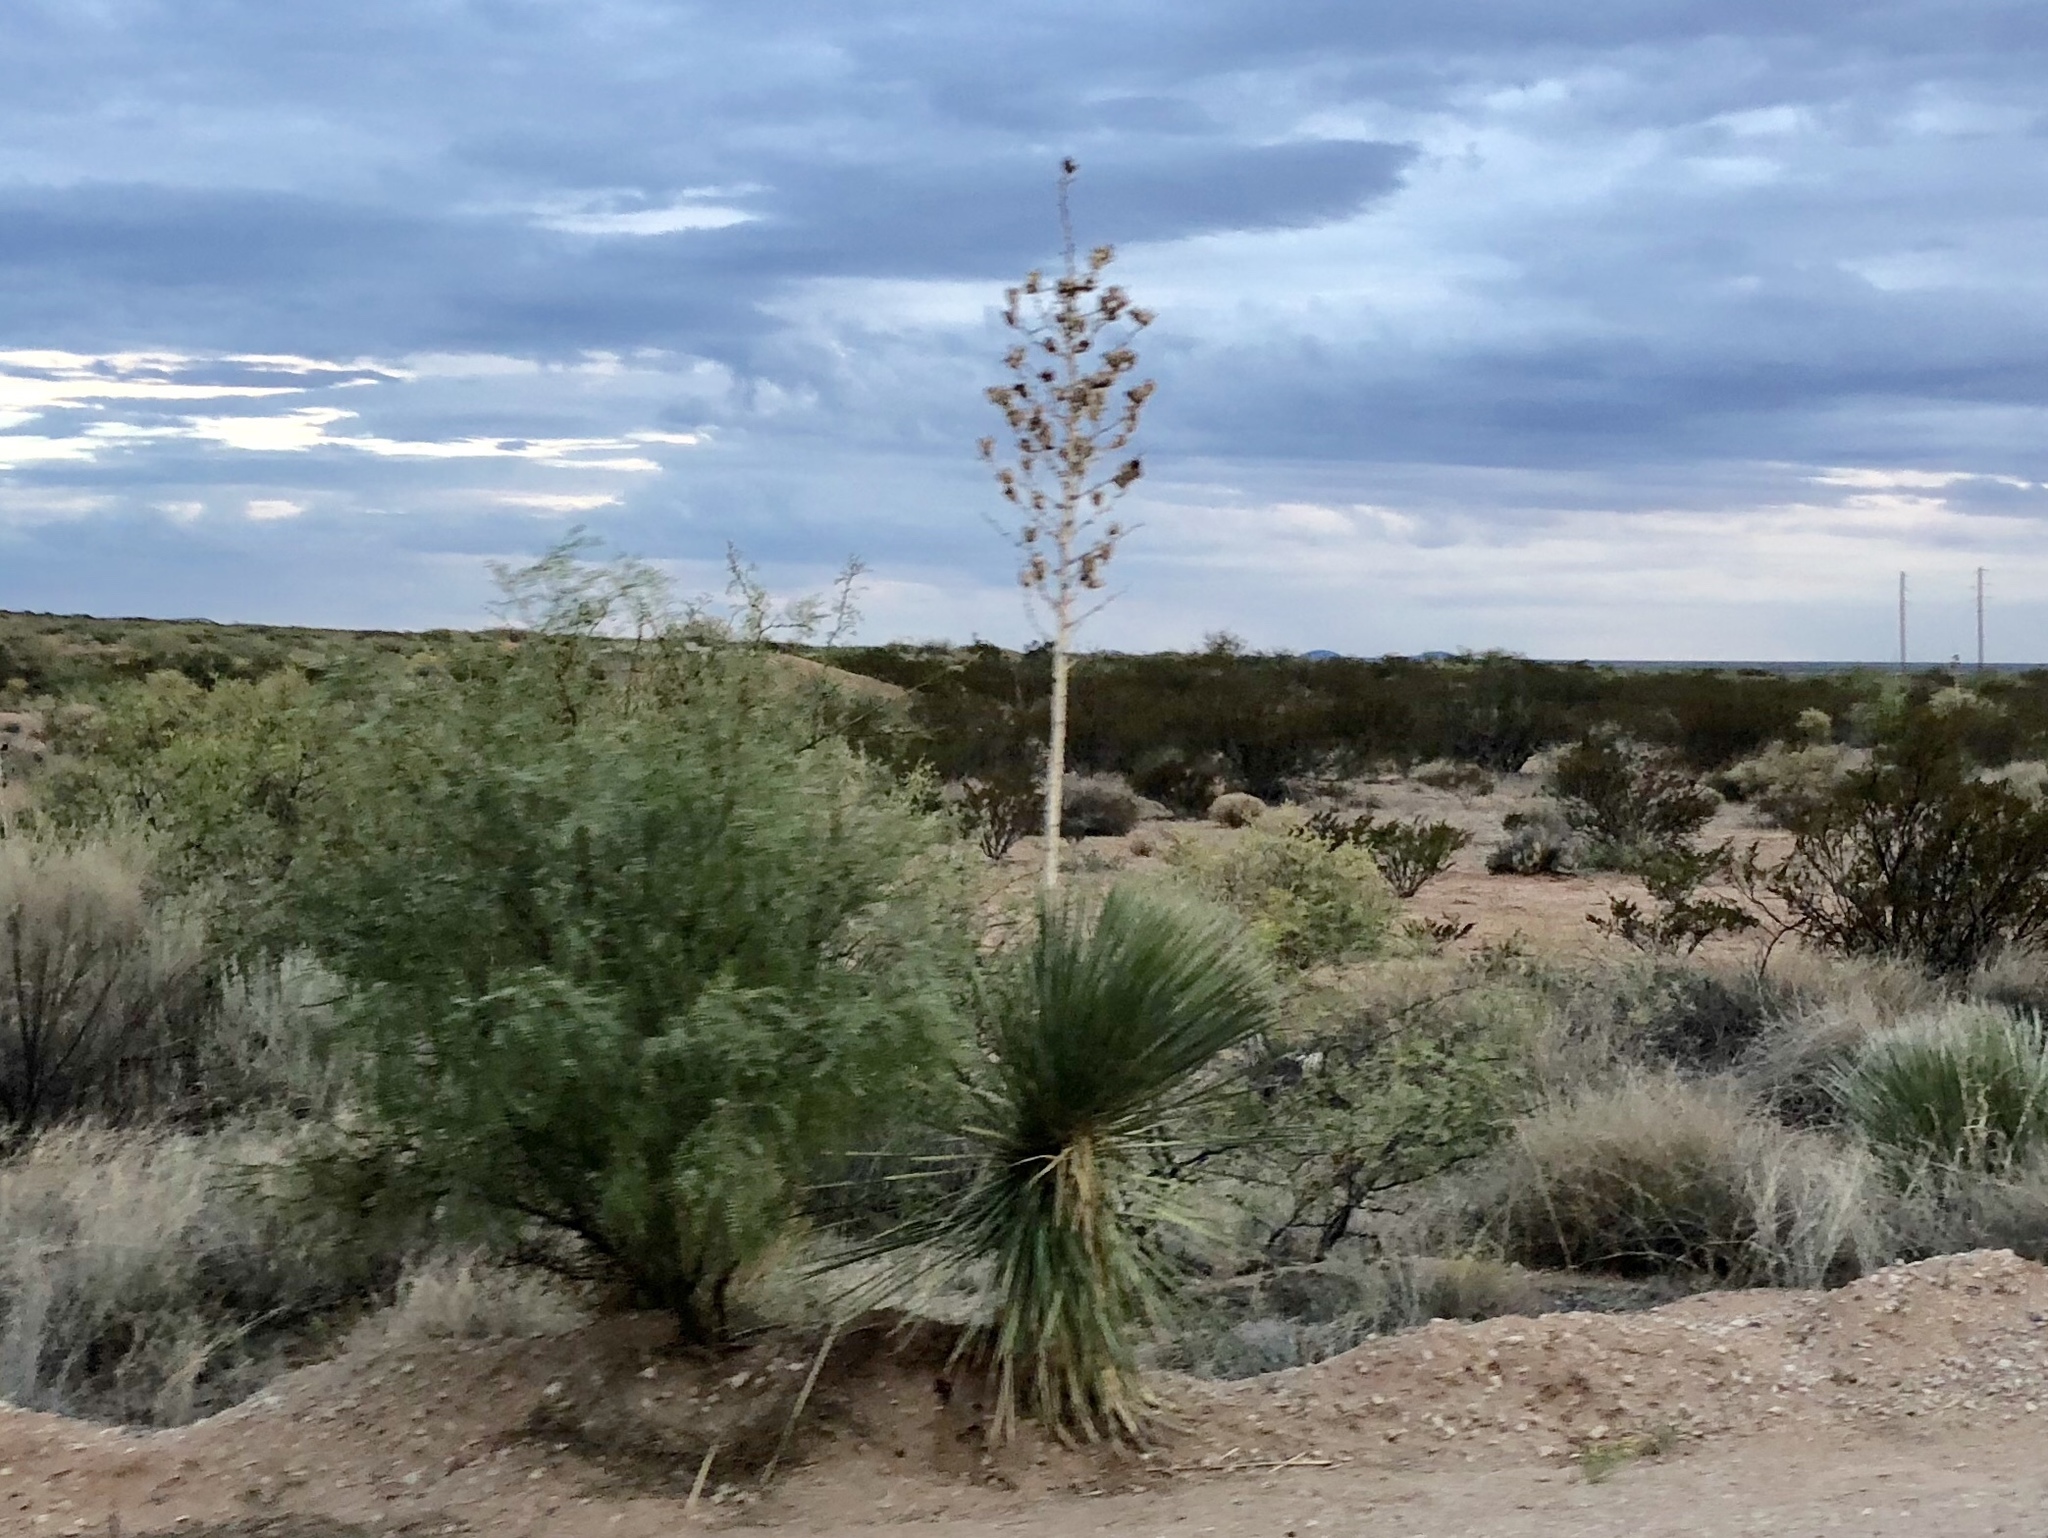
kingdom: Plantae
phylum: Tracheophyta
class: Liliopsida
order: Asparagales
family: Asparagaceae
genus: Yucca
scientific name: Yucca elata
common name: Palmella
